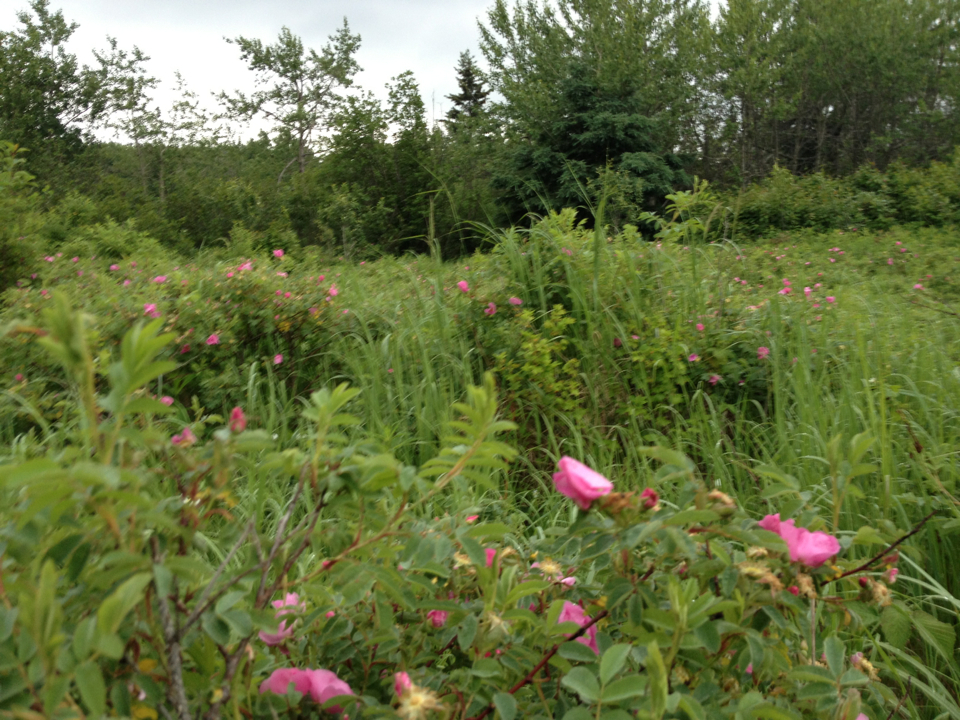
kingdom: Plantae
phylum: Tracheophyta
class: Magnoliopsida
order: Rosales
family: Rosaceae
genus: Rosa
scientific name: Rosa acicularis
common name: Prickly rose
